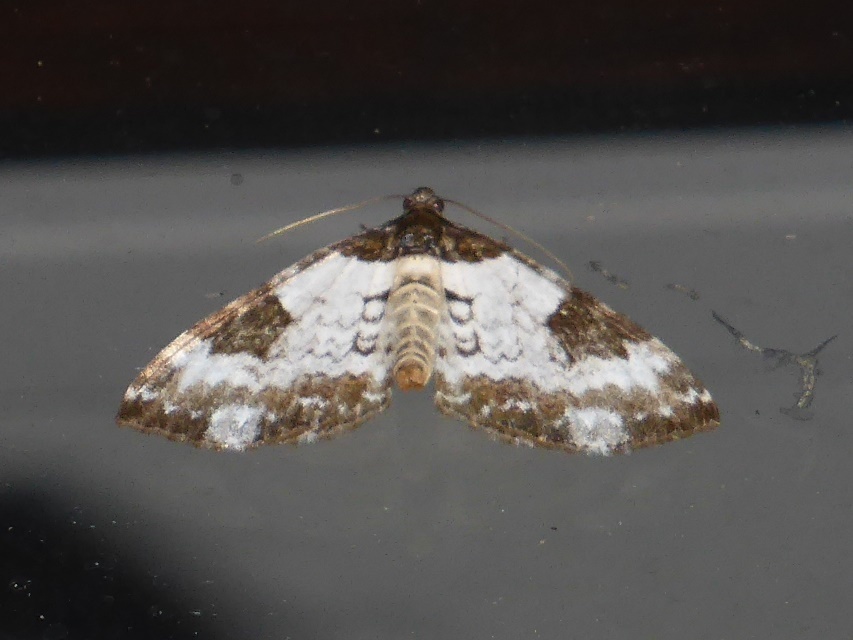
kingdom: Animalia
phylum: Arthropoda
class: Insecta
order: Lepidoptera
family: Geometridae
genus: Melanthia
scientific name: Melanthia procellata
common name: Pretty chalk carpet
